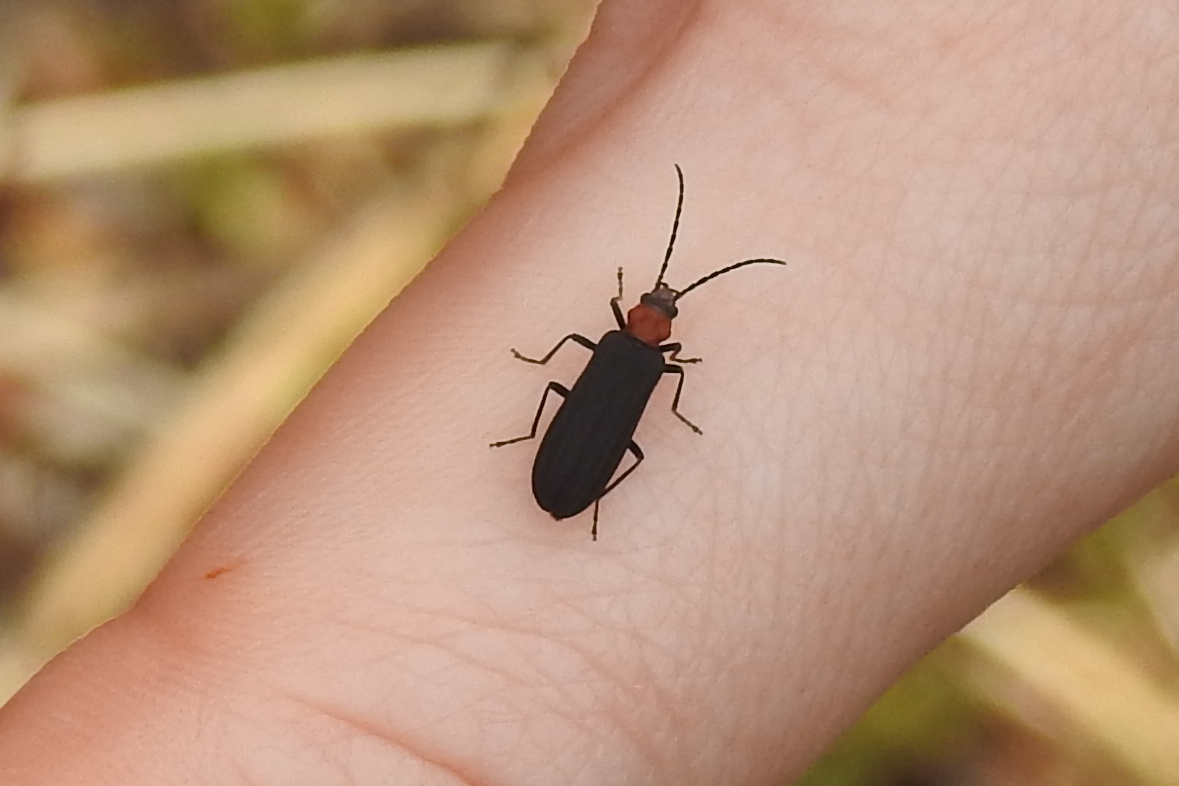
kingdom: Animalia
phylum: Arthropoda
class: Insecta
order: Coleoptera
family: Oedemeridae
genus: Ischnomera
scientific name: Ischnomera
